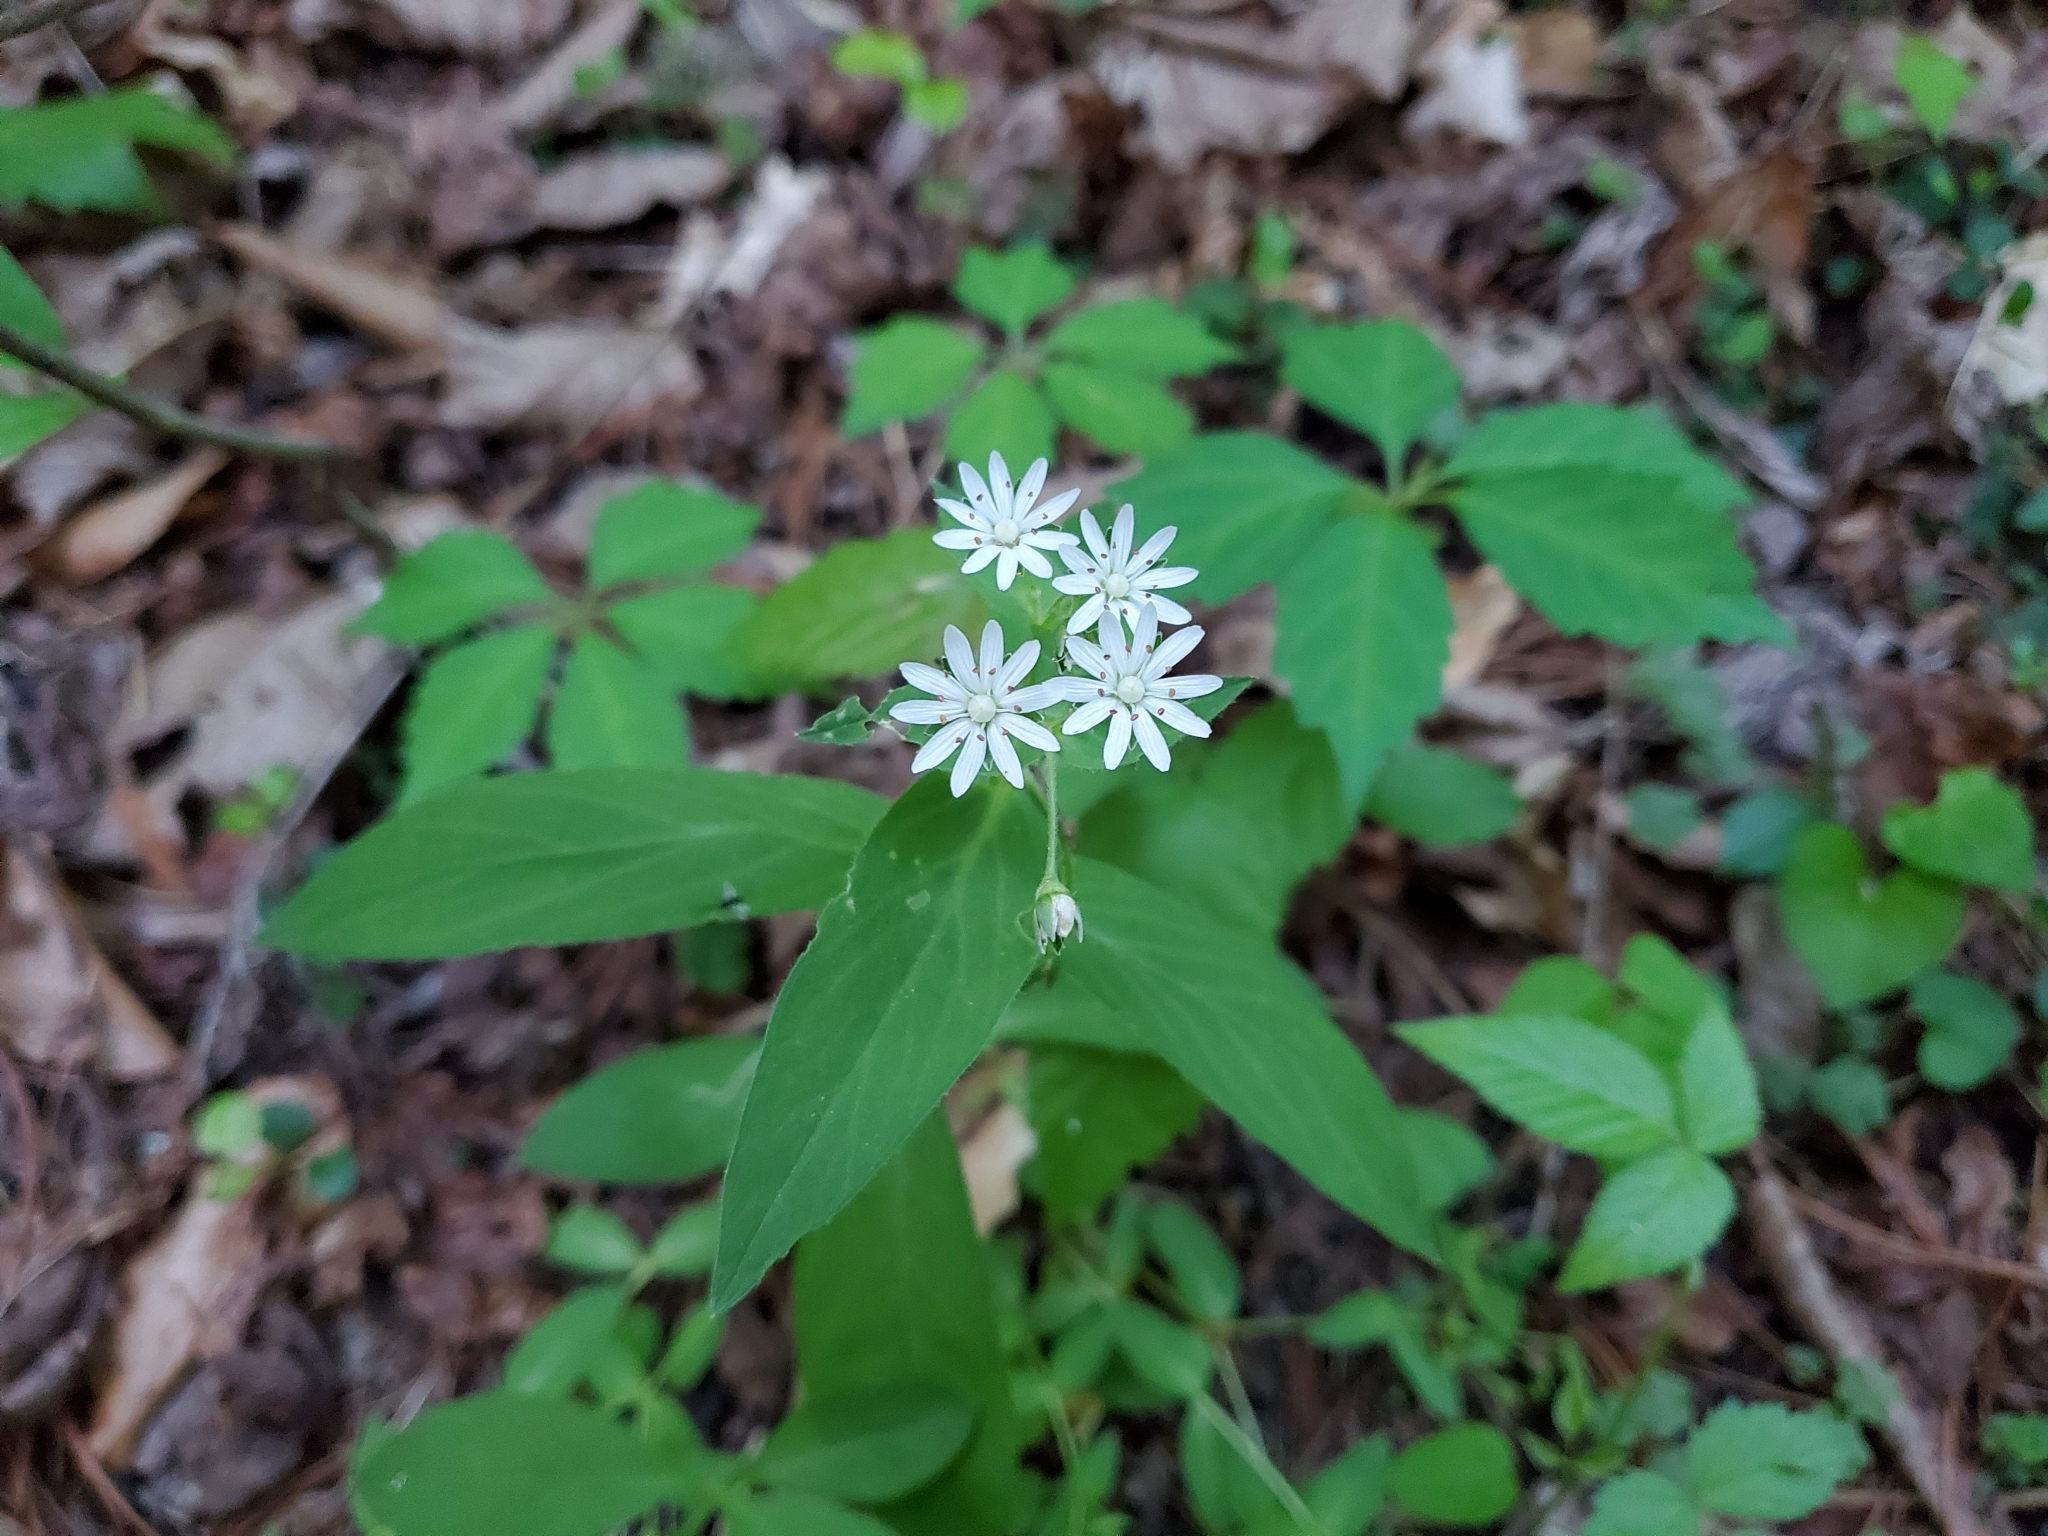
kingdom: Plantae
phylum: Tracheophyta
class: Magnoliopsida
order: Caryophyllales
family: Caryophyllaceae
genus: Stellaria
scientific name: Stellaria pubera
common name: Star chickweed
